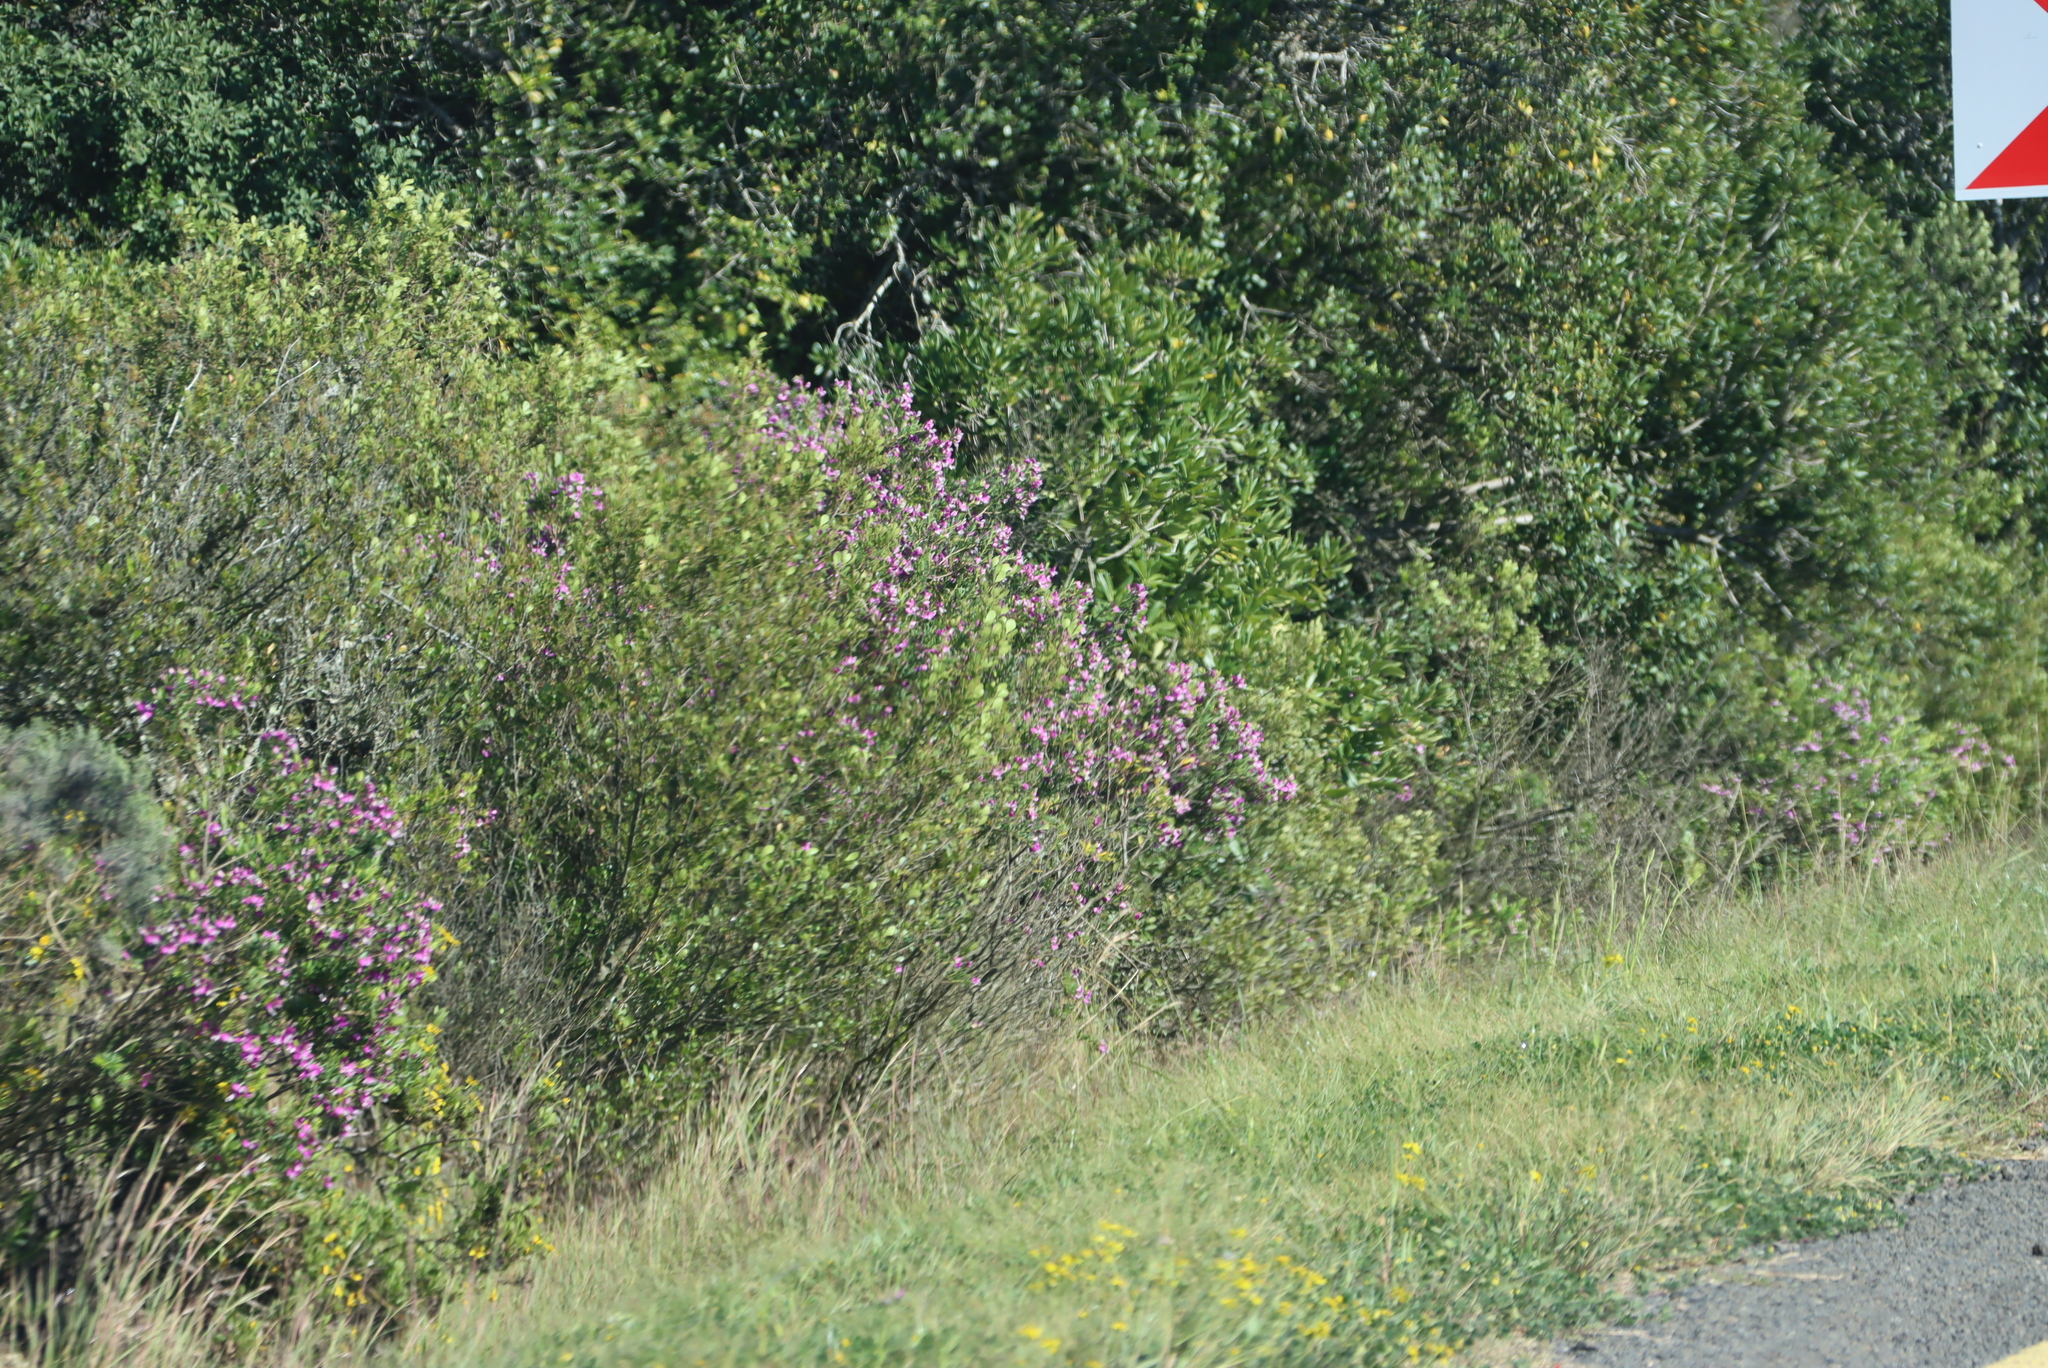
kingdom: Plantae
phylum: Tracheophyta
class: Magnoliopsida
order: Fabales
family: Polygalaceae
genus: Polygala
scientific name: Polygala myrtifolia
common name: Myrtle-leaf milkwort
